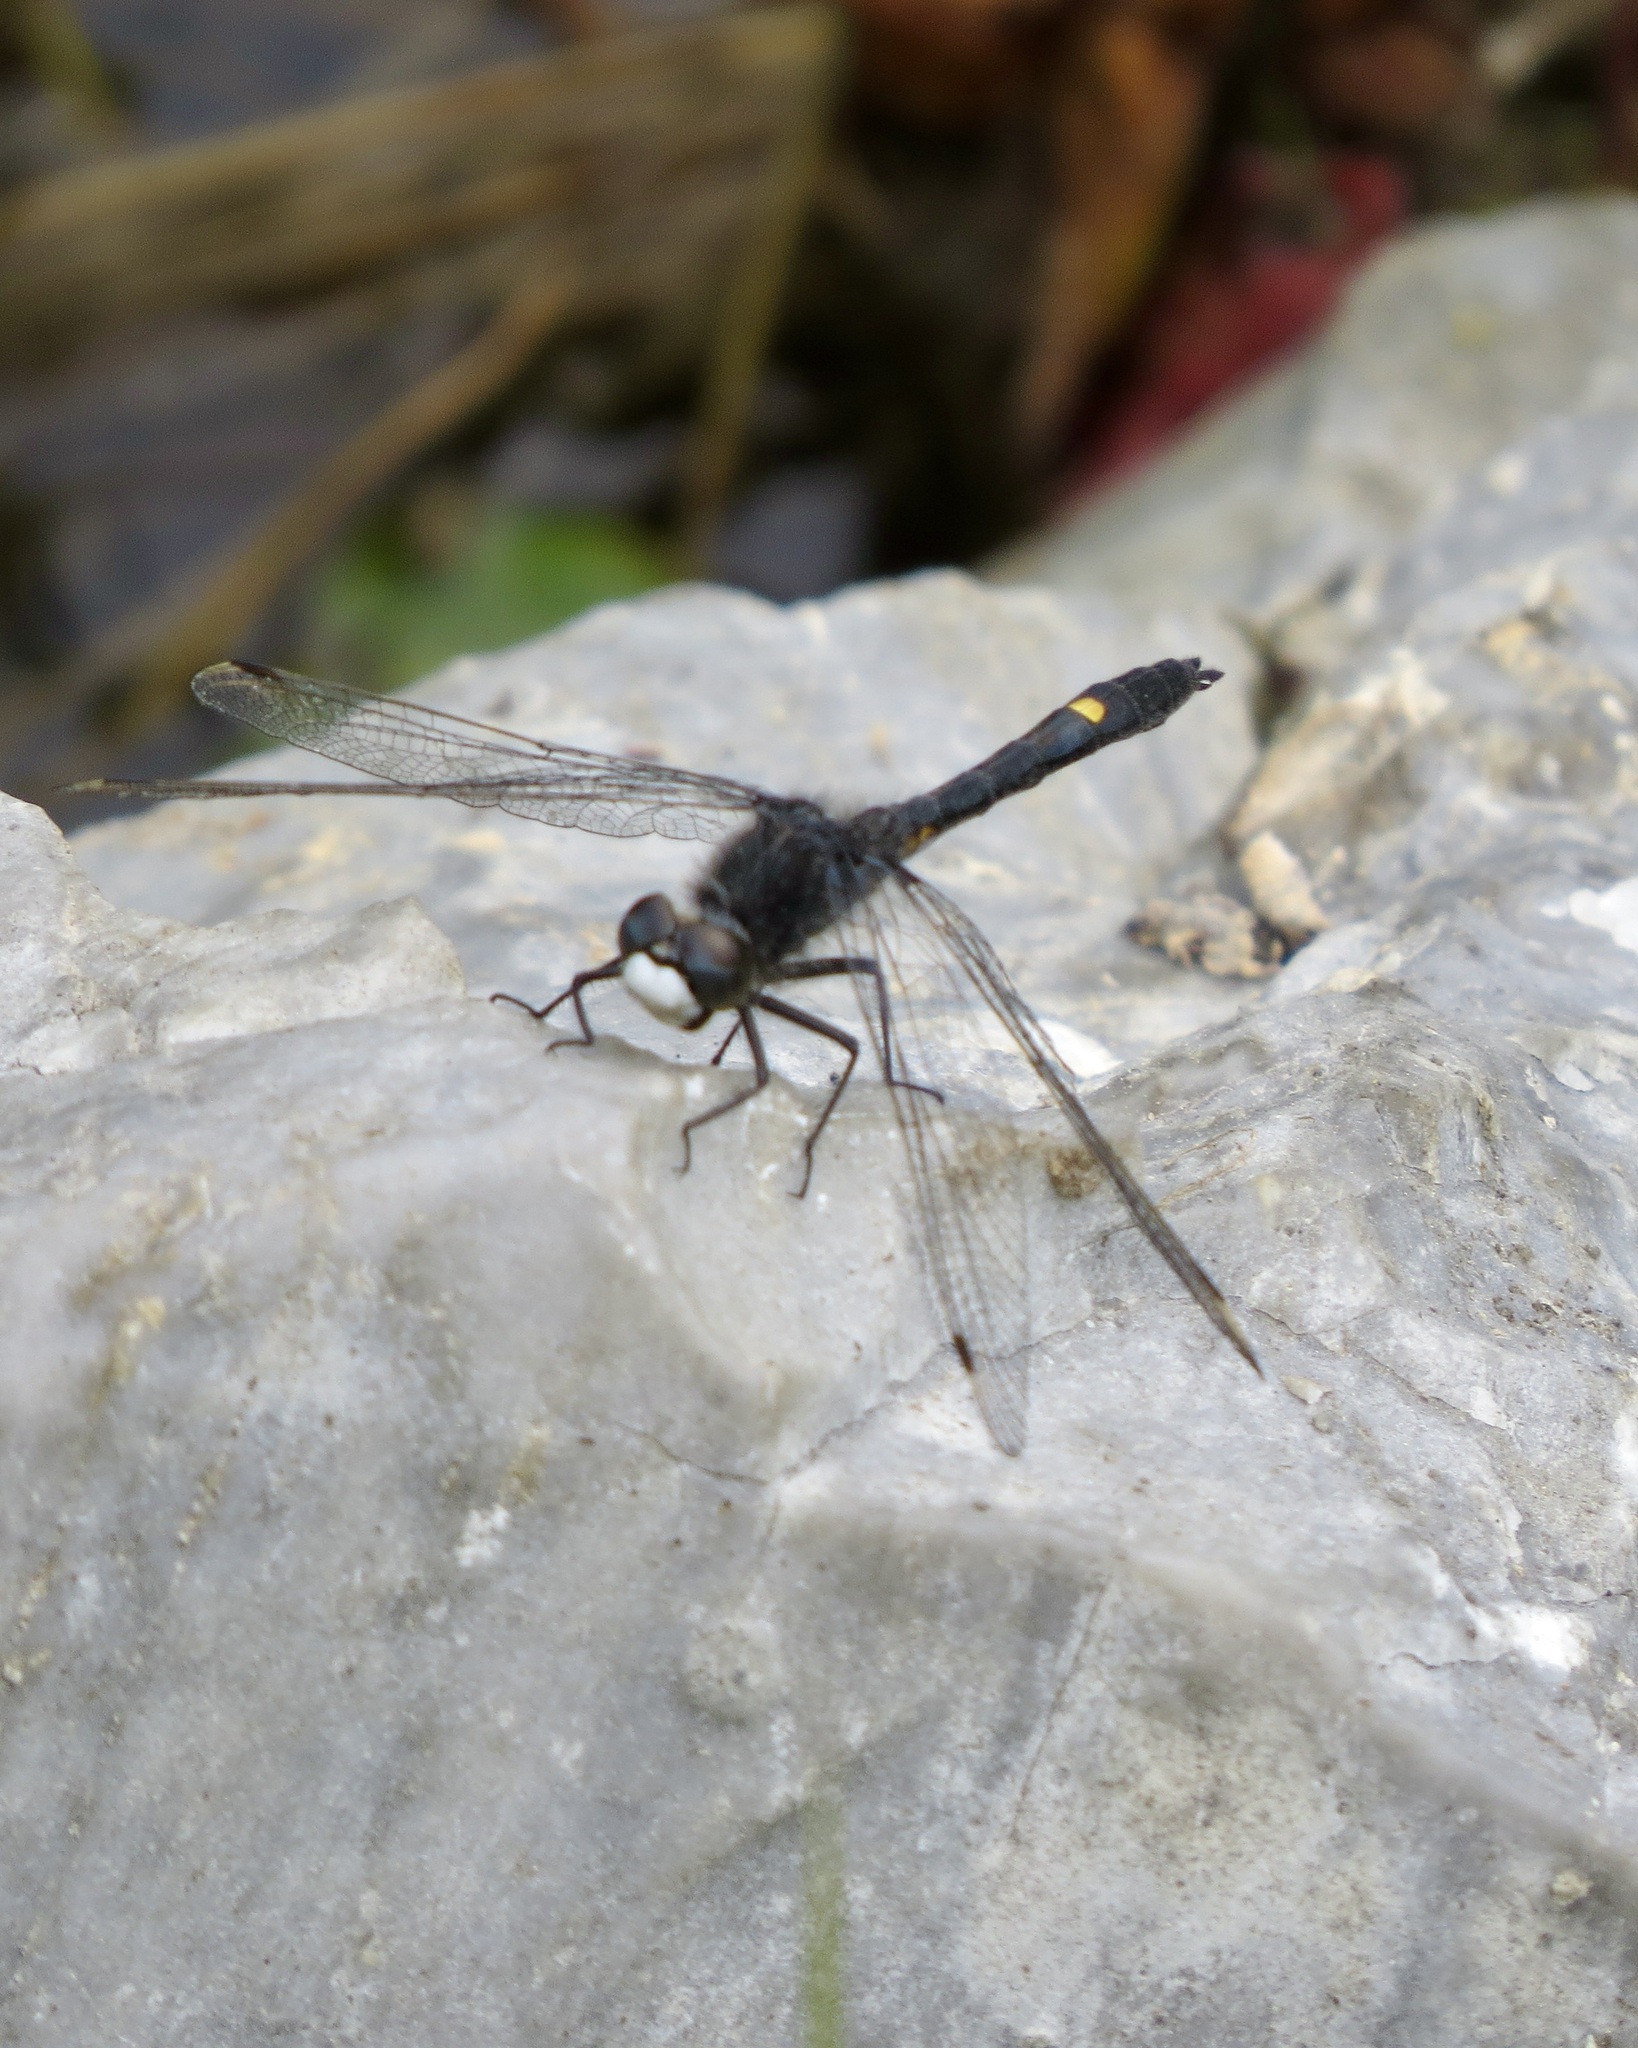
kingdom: Animalia
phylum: Arthropoda
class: Insecta
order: Odonata
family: Libellulidae
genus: Leucorrhinia
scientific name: Leucorrhinia intacta
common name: Dot-tailed whiteface
